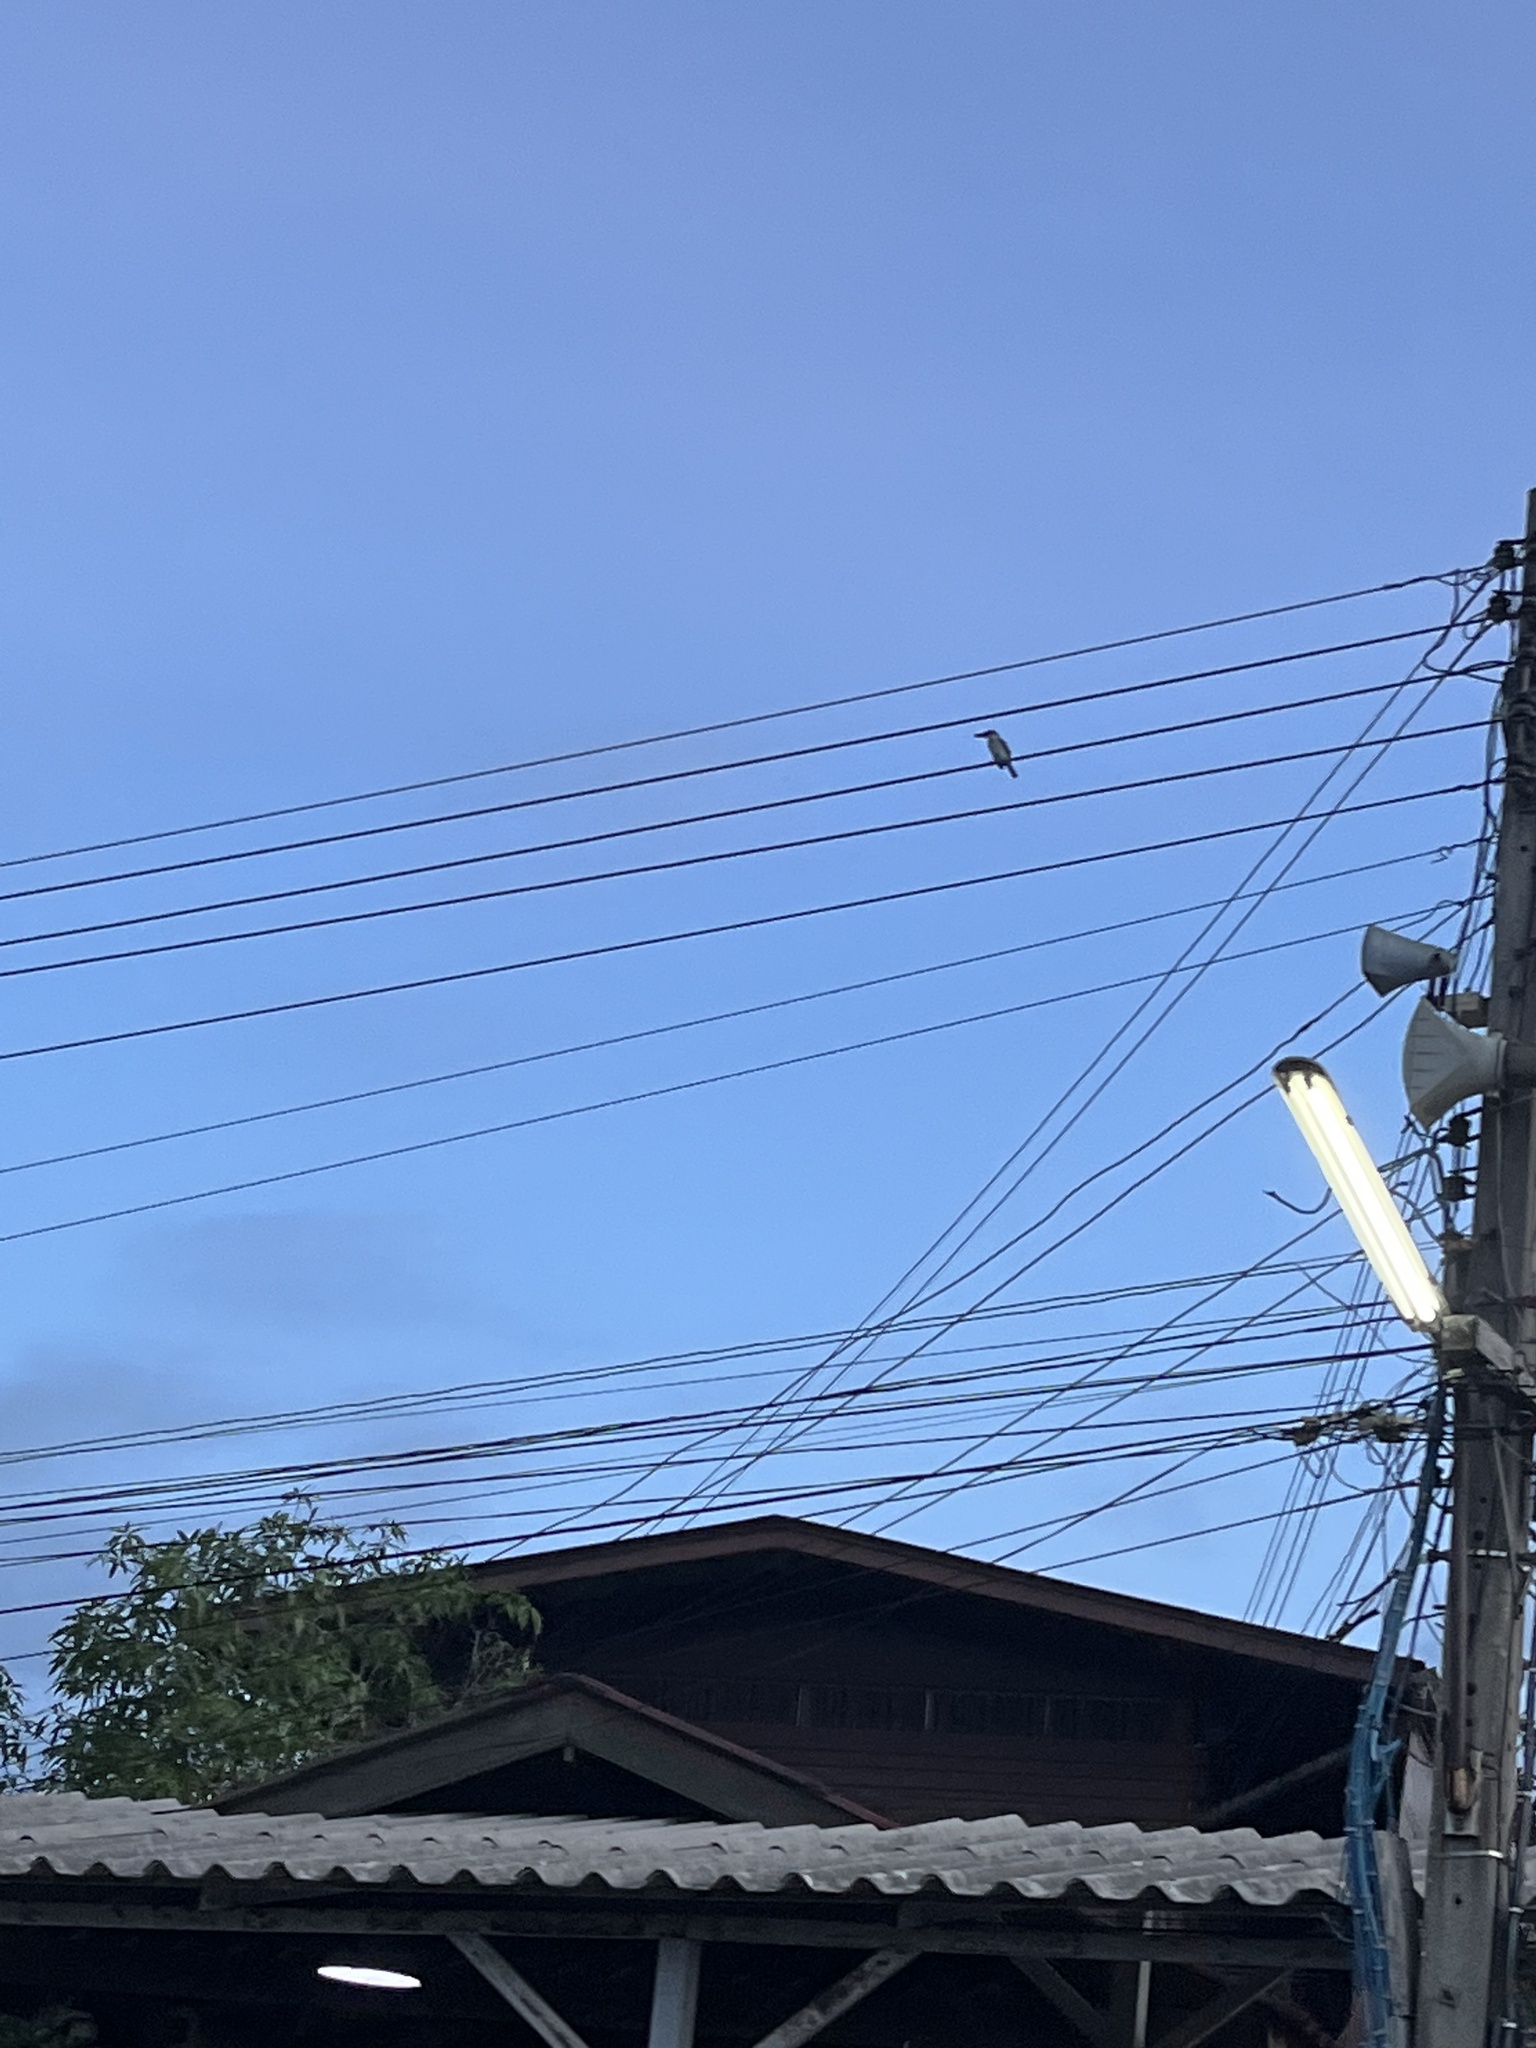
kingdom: Animalia
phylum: Chordata
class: Aves
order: Coraciiformes
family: Alcedinidae
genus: Todiramphus
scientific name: Todiramphus chloris
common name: Collared kingfisher
